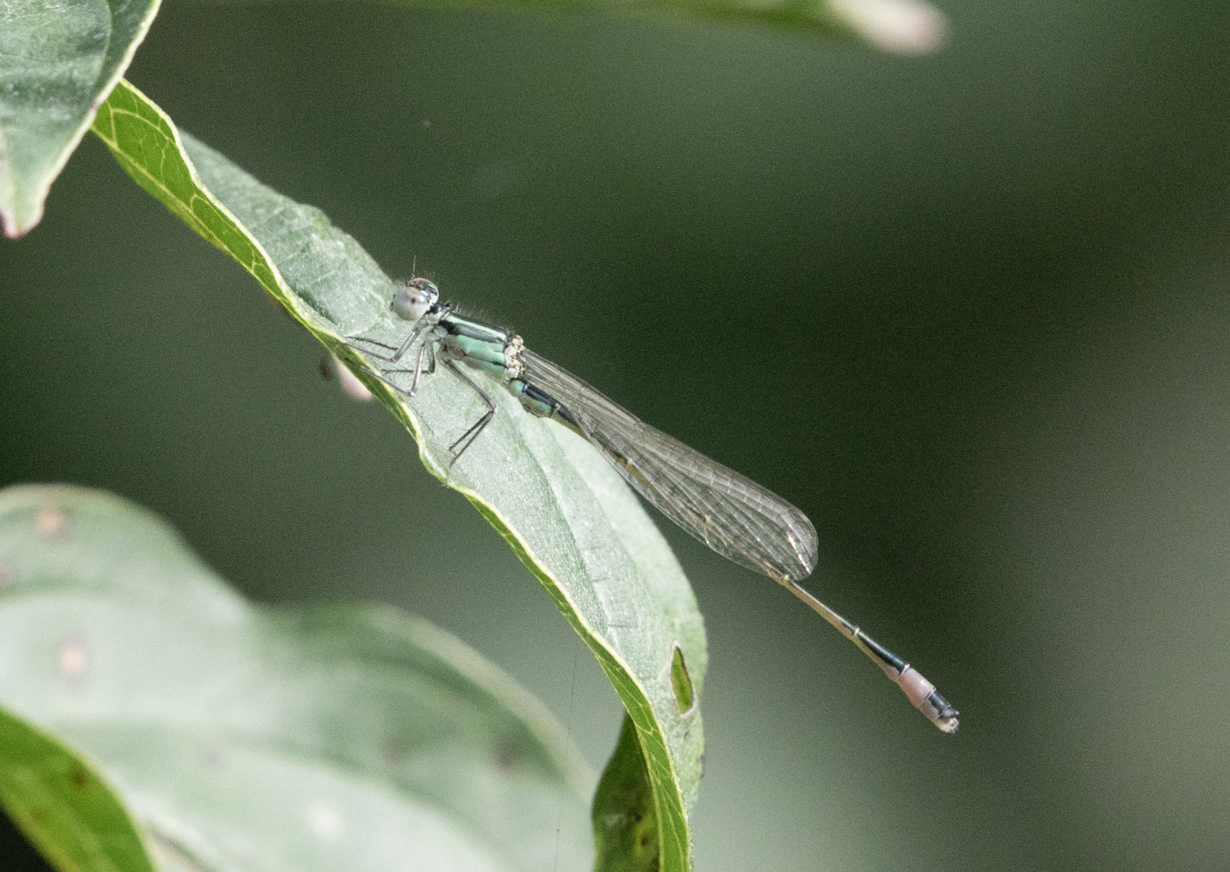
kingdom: Animalia
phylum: Arthropoda
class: Insecta
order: Odonata
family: Coenagrionidae
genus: Ischnura
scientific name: Ischnura elegans
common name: Blue-tailed damselfly
